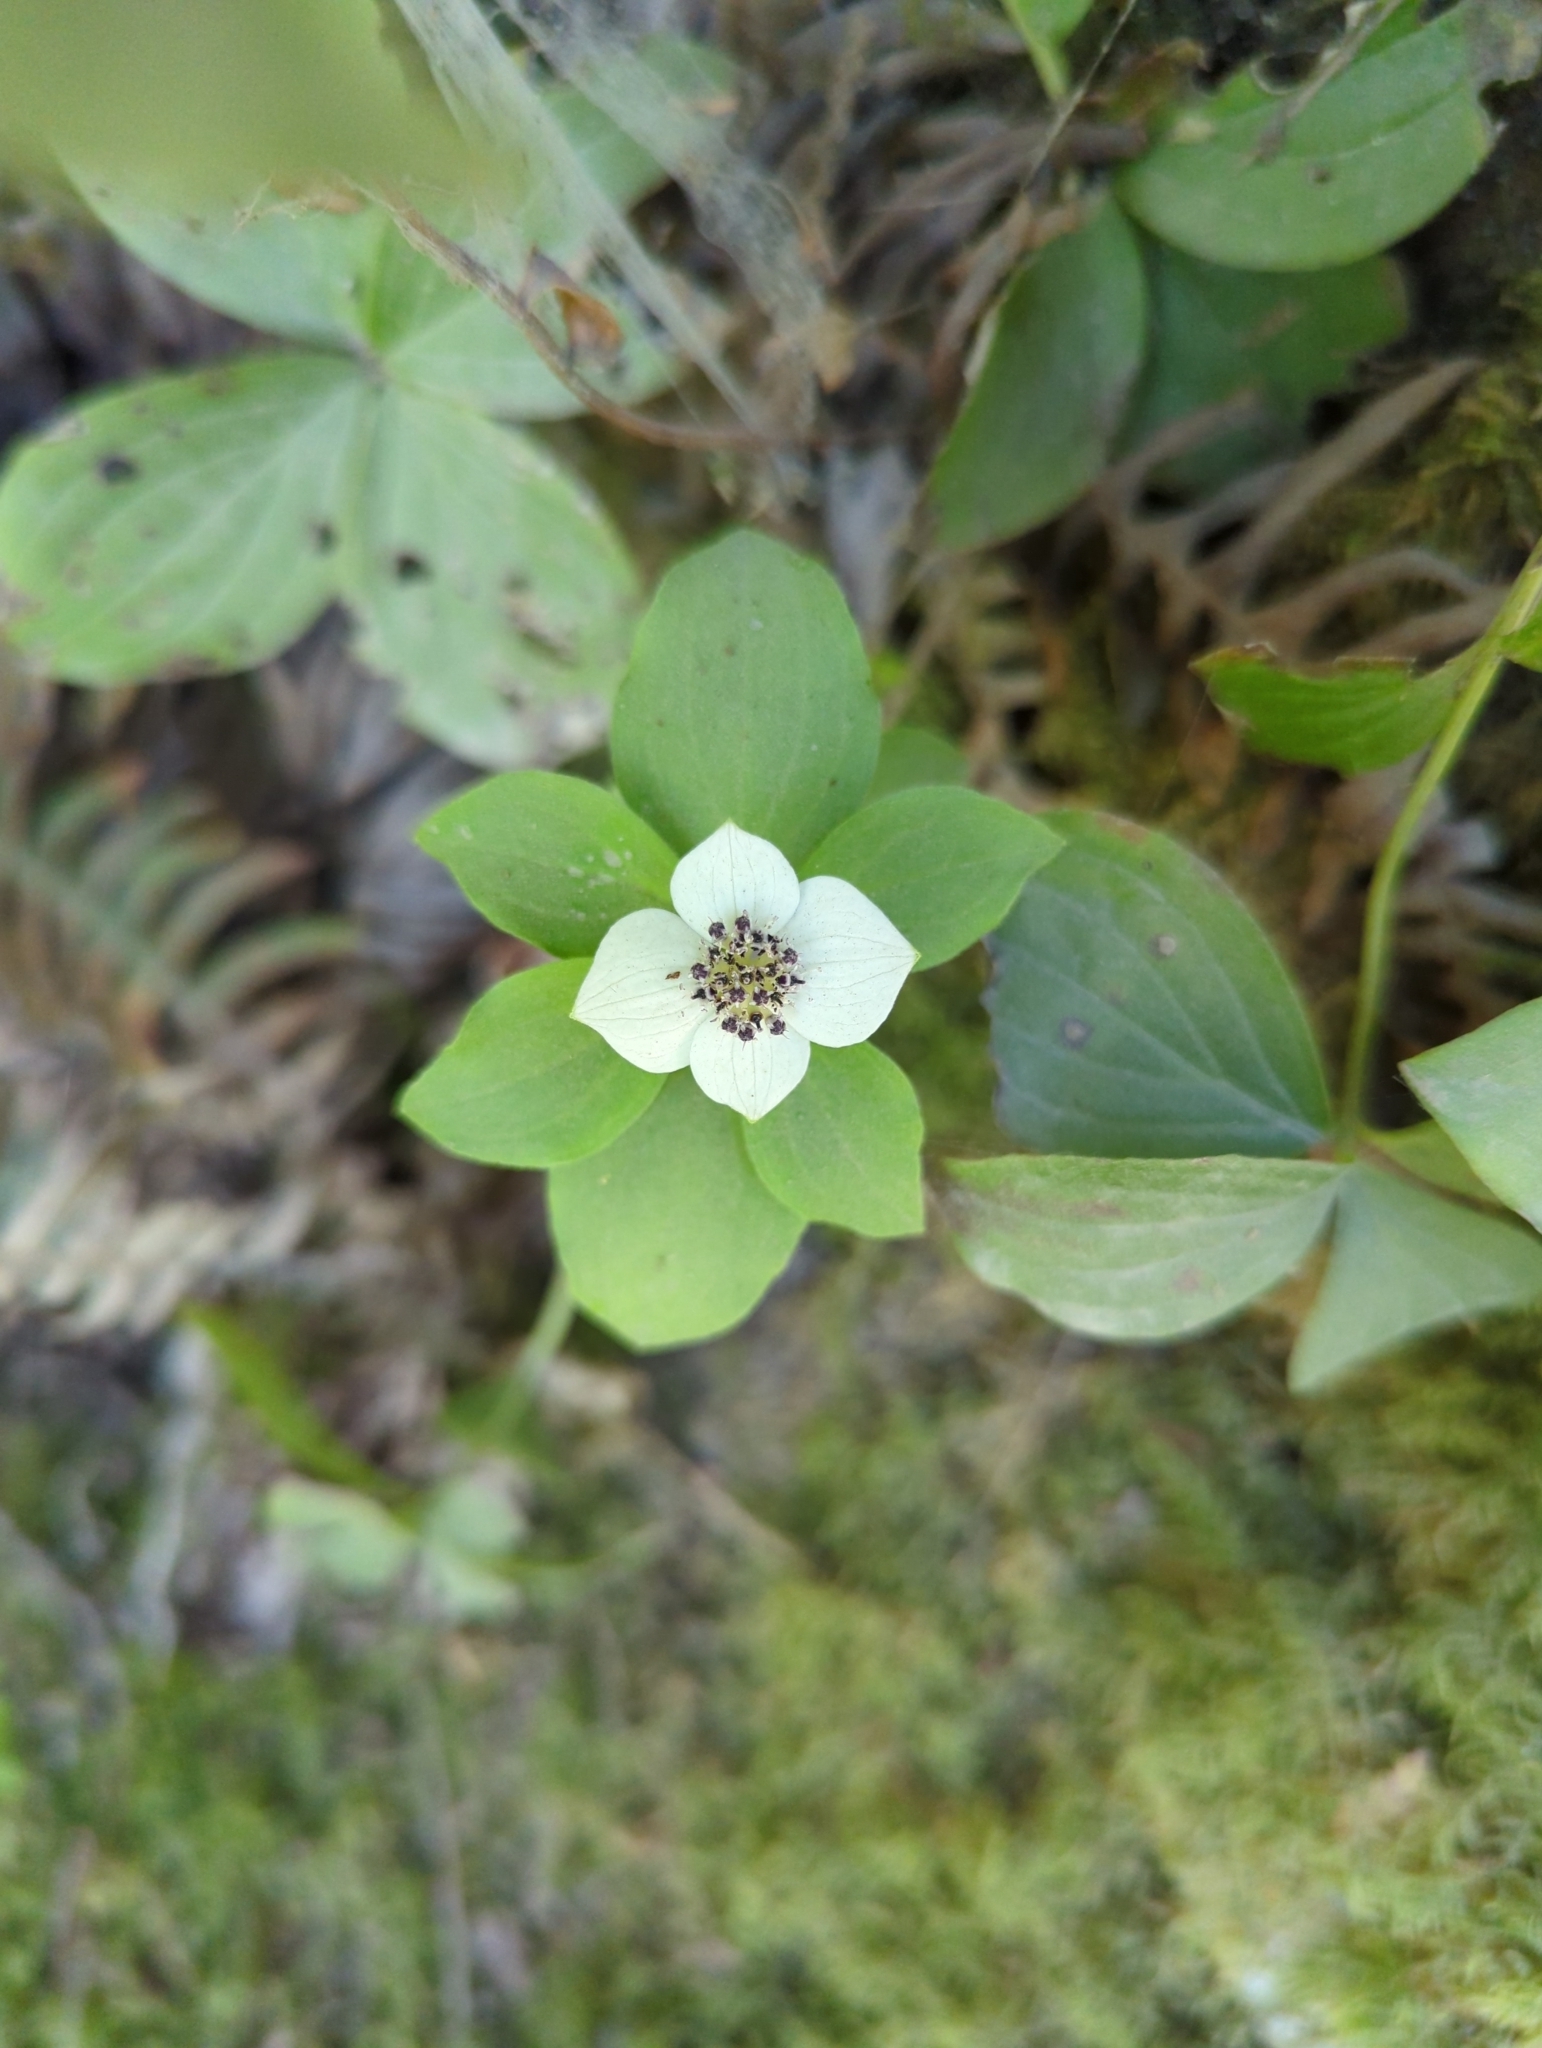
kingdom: Plantae
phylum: Tracheophyta
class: Magnoliopsida
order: Cornales
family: Cornaceae
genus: Cornus
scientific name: Cornus unalaschkensis
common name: Alaska bunchberry
